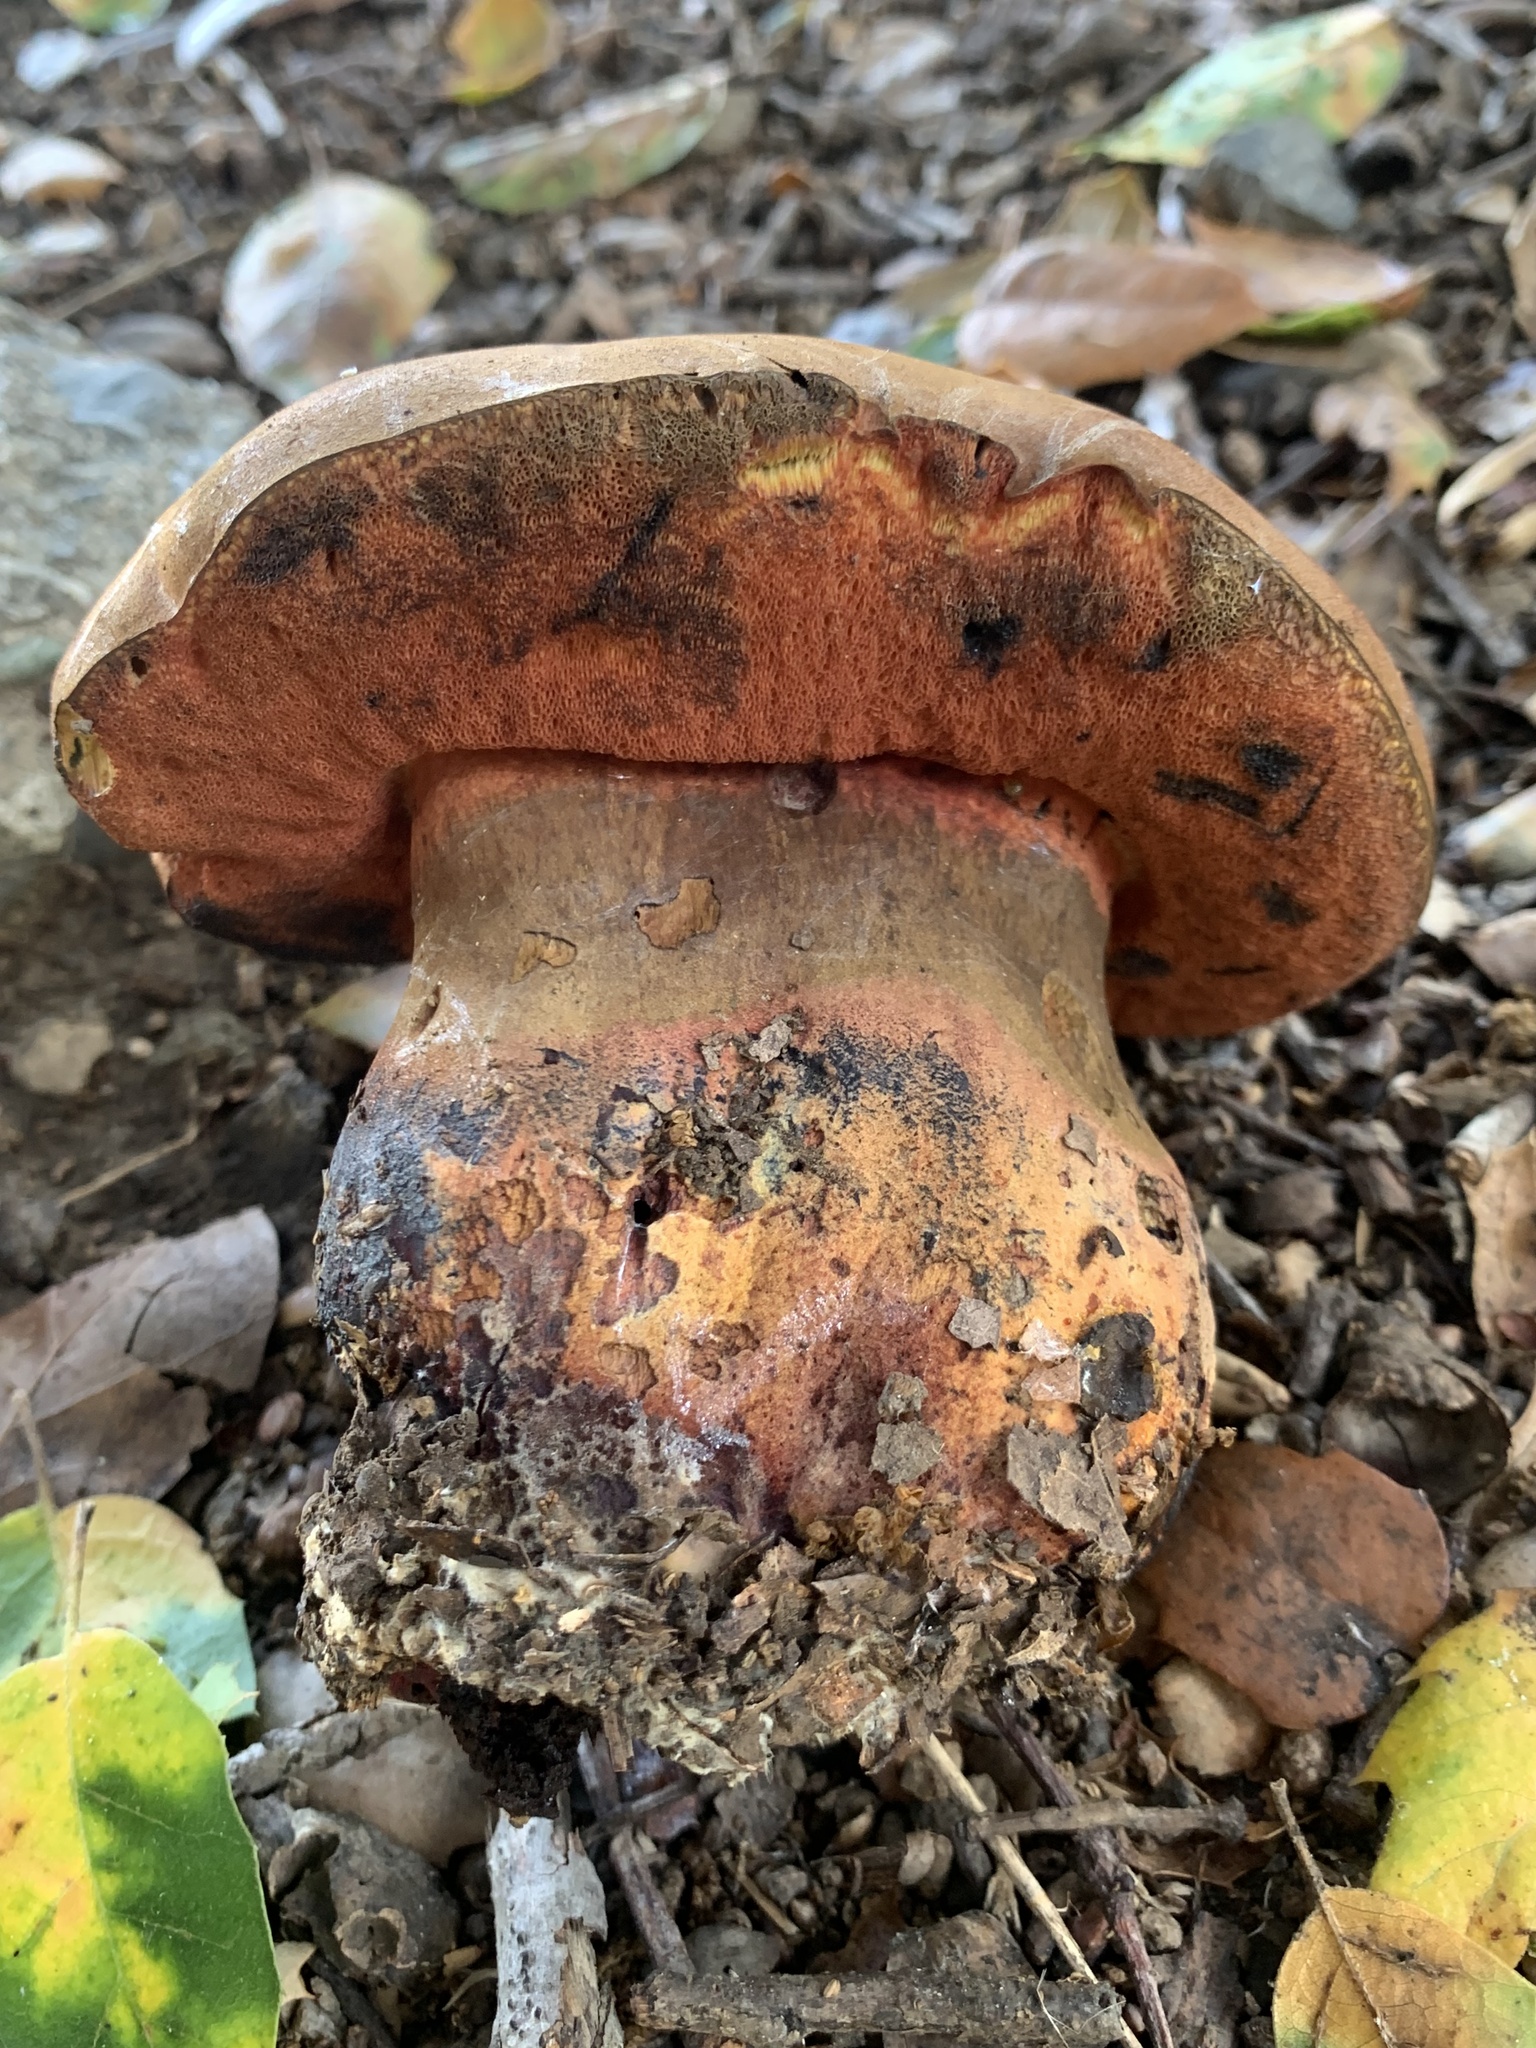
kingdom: Fungi
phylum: Basidiomycota
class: Agaricomycetes
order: Boletales
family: Boletaceae
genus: Suillellus
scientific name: Suillellus amygdalinus
